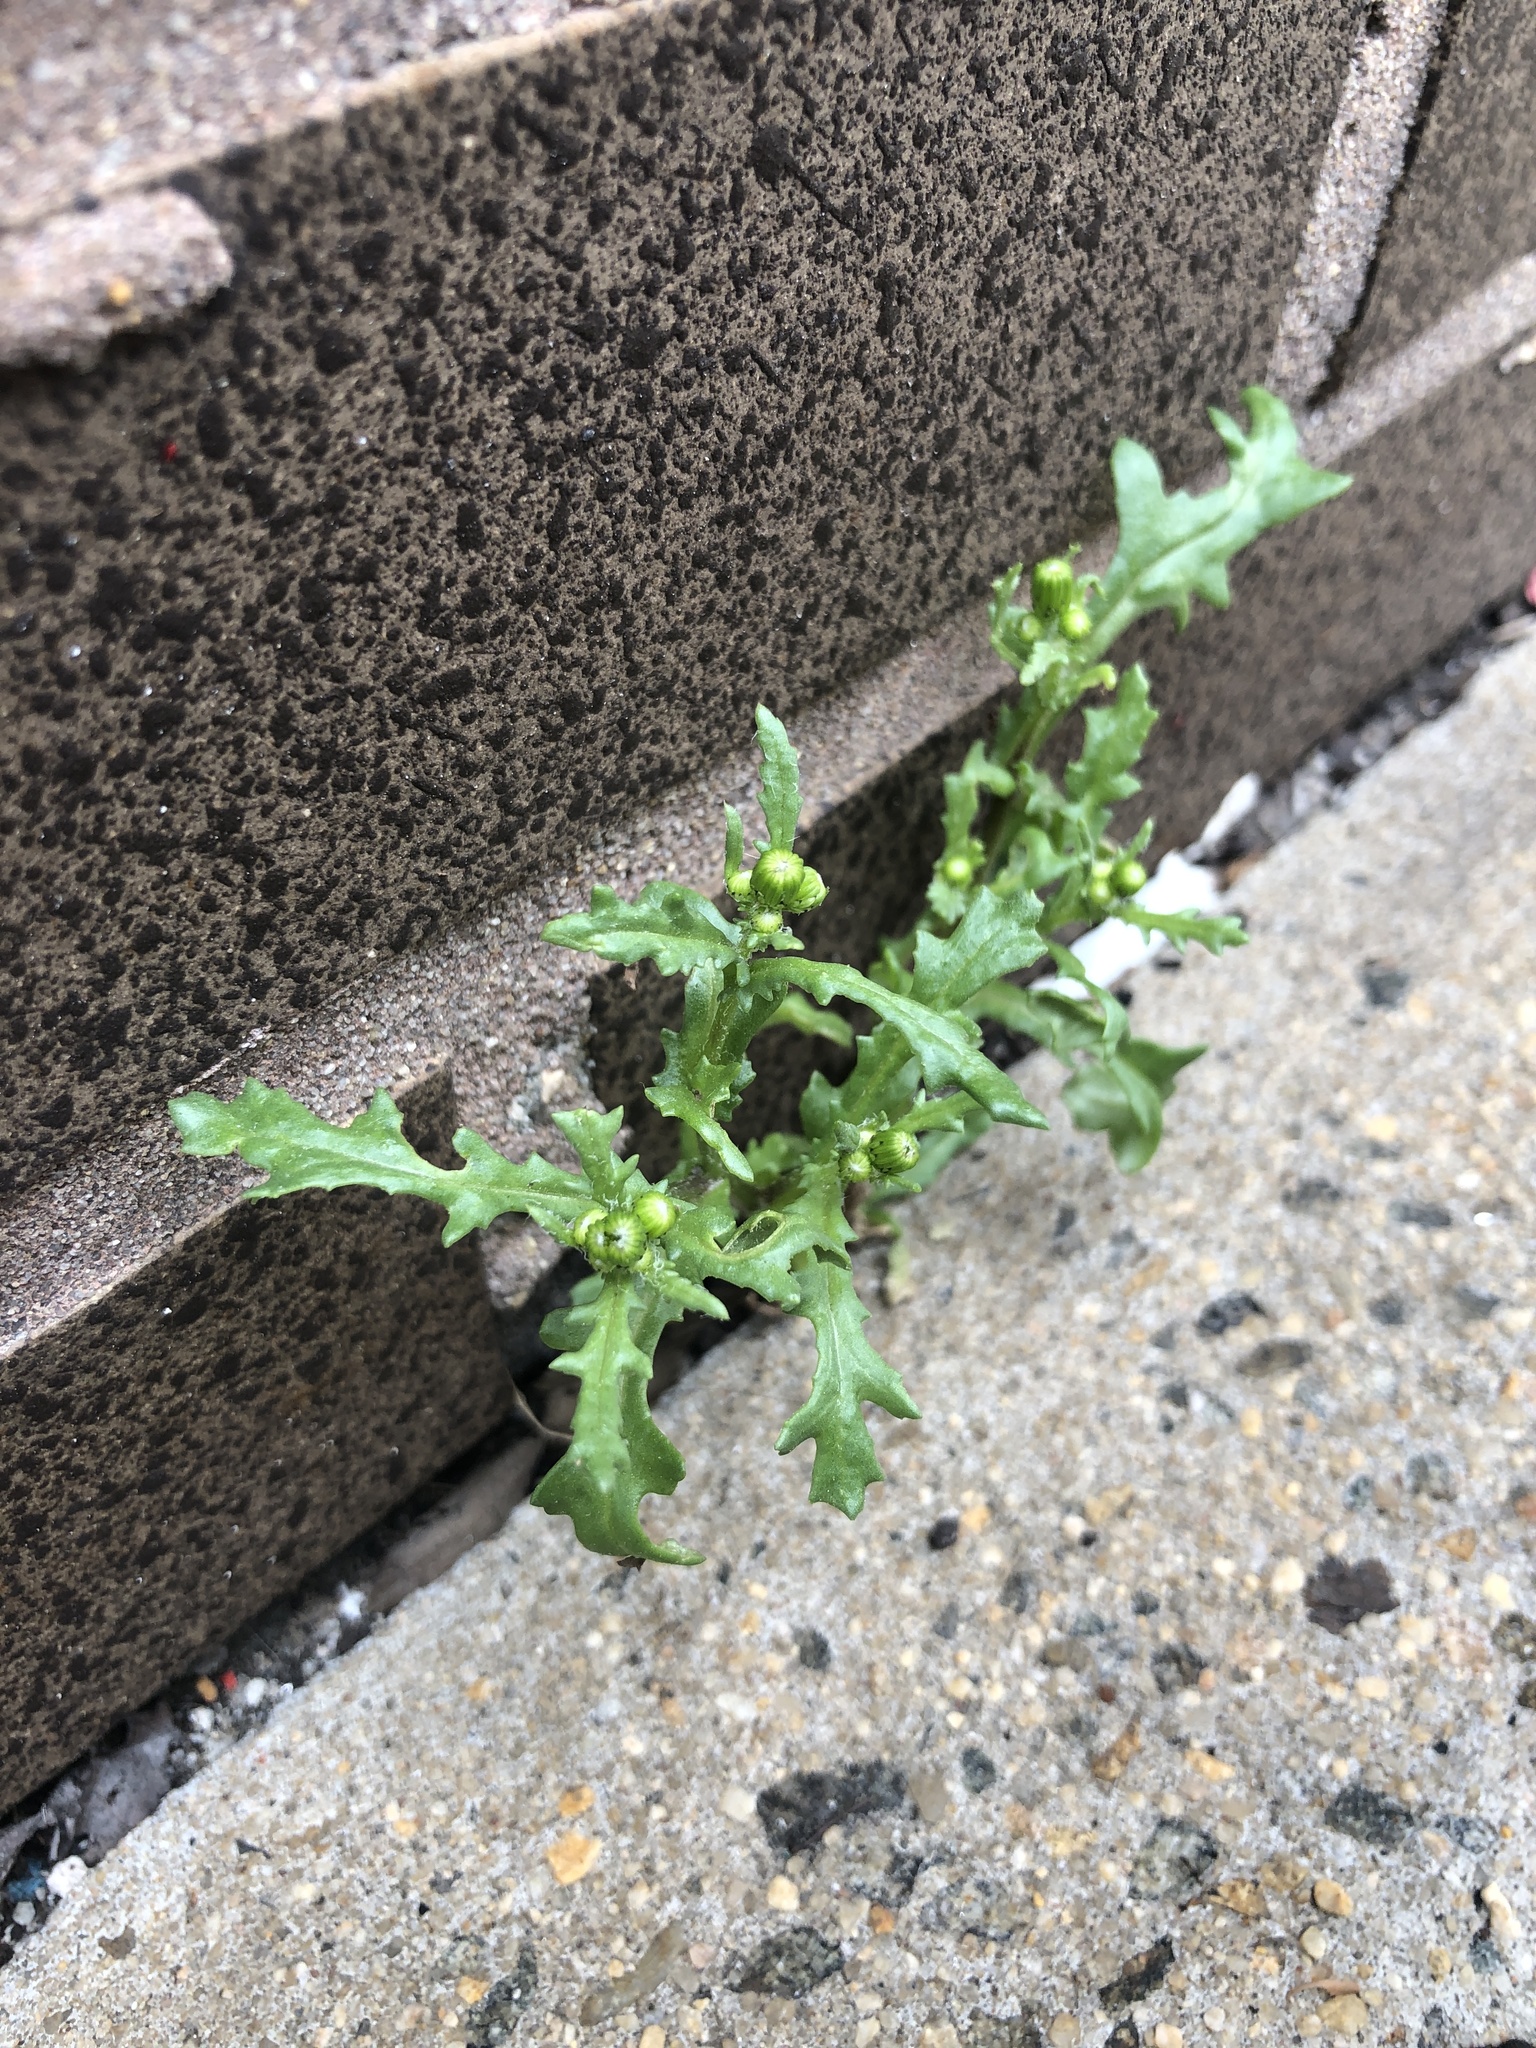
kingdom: Plantae
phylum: Tracheophyta
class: Magnoliopsida
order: Asterales
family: Asteraceae
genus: Senecio
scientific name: Senecio vulgaris
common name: Old-man-in-the-spring
